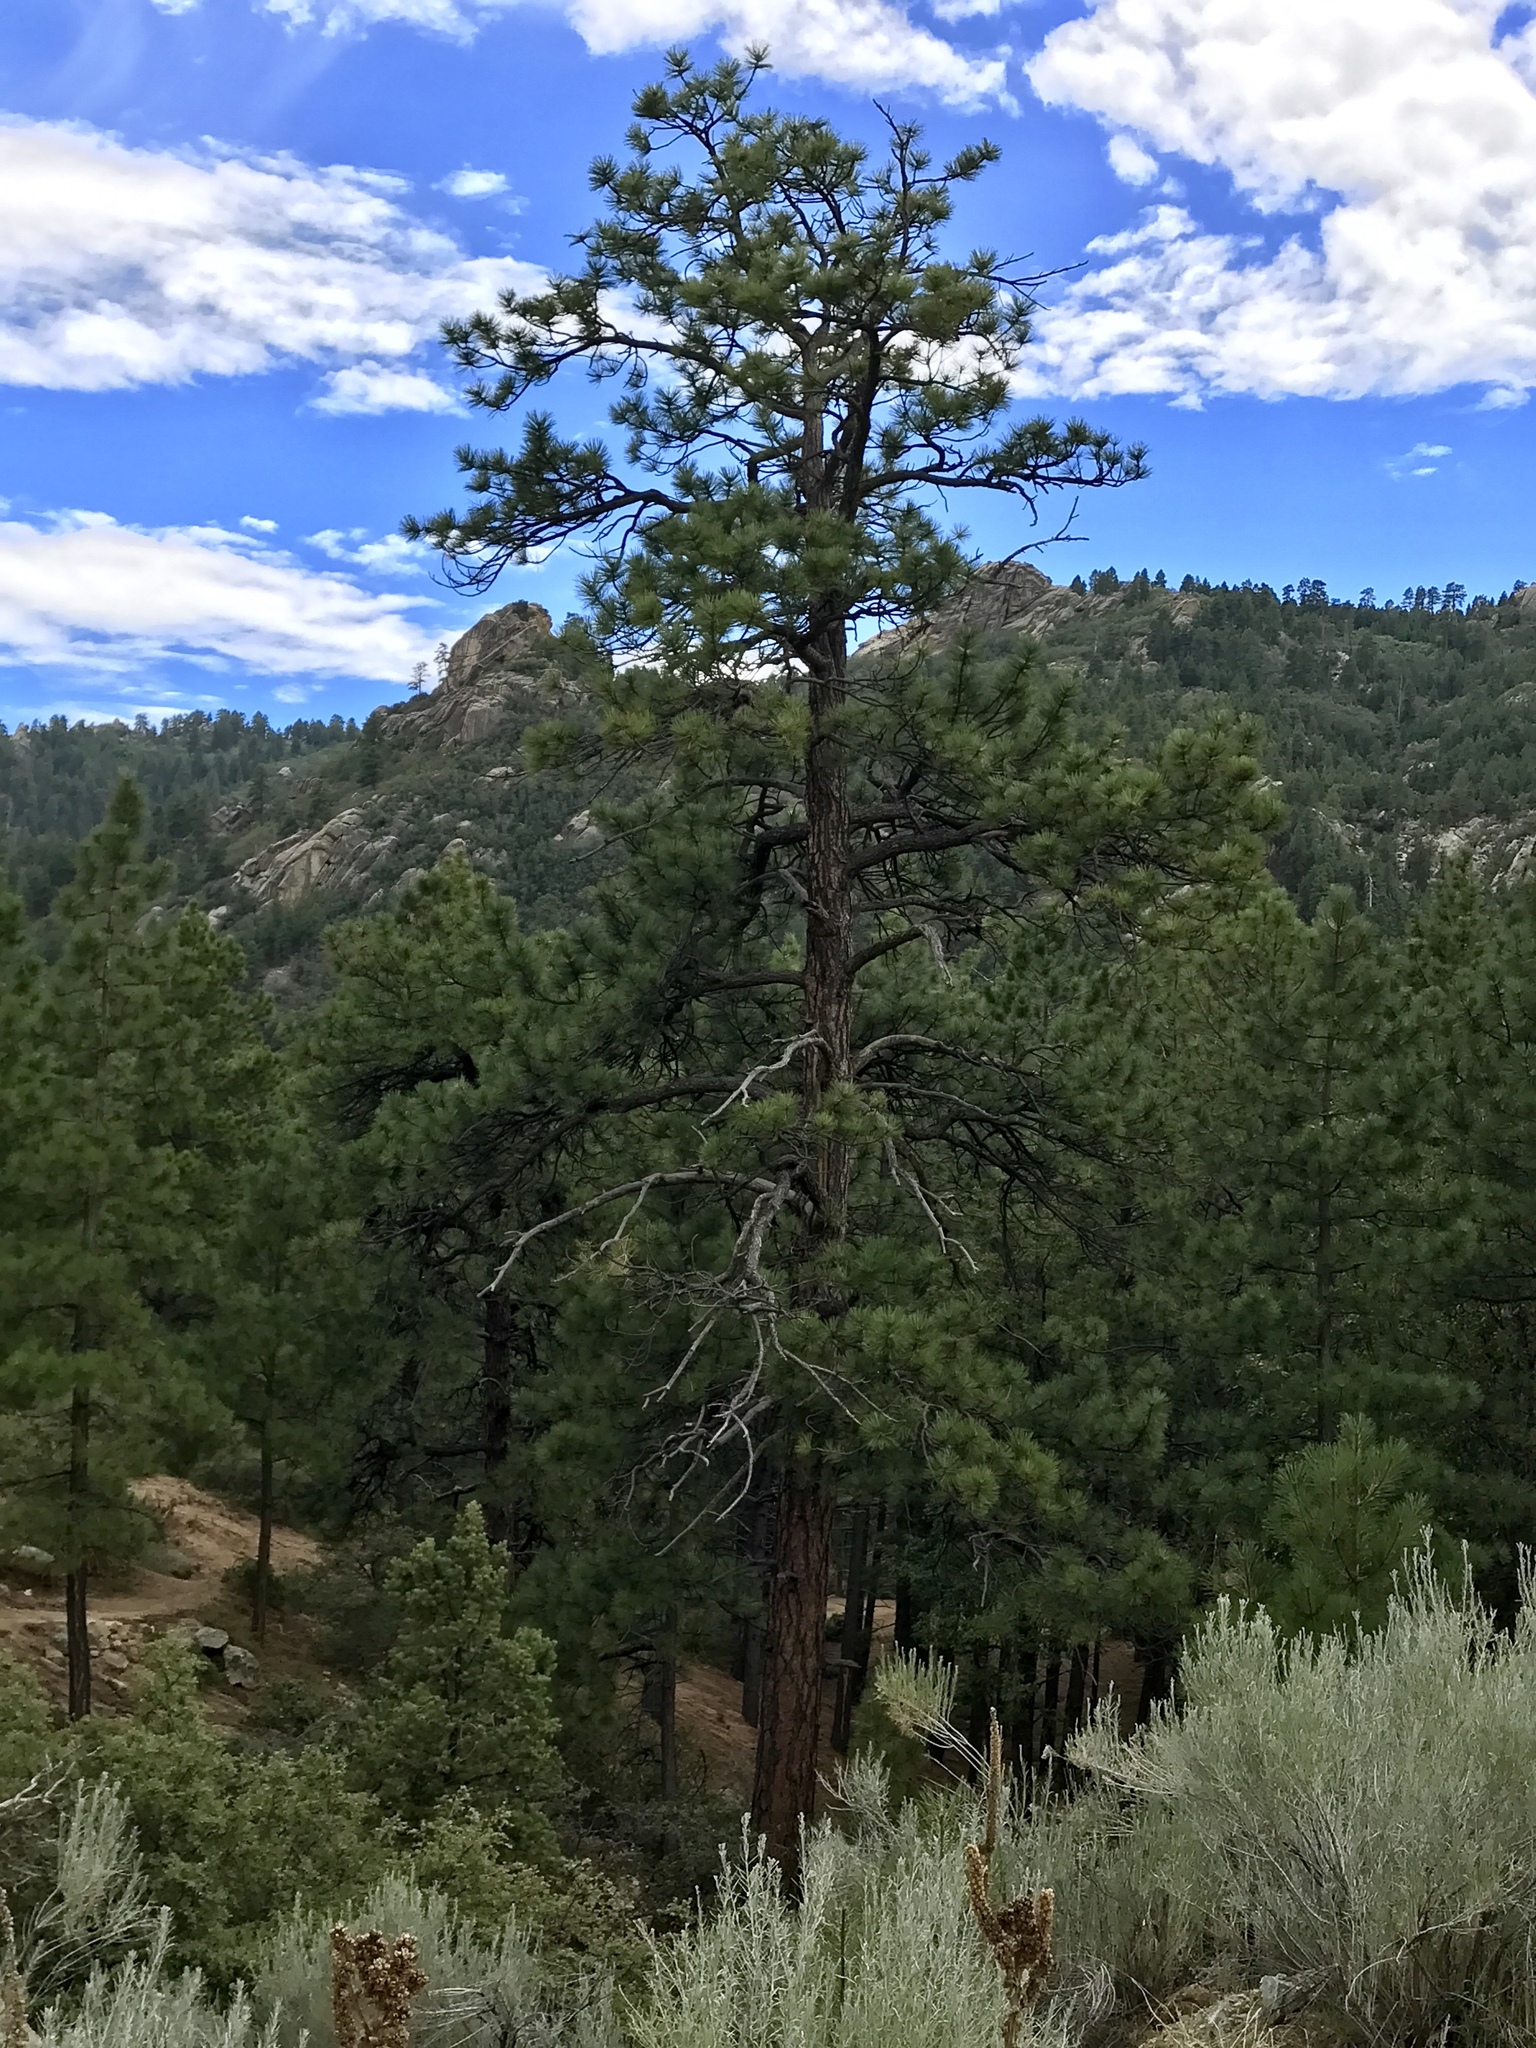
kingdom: Plantae
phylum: Tracheophyta
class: Pinopsida
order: Pinales
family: Pinaceae
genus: Pinus
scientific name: Pinus ponderosa
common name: Western yellow-pine
